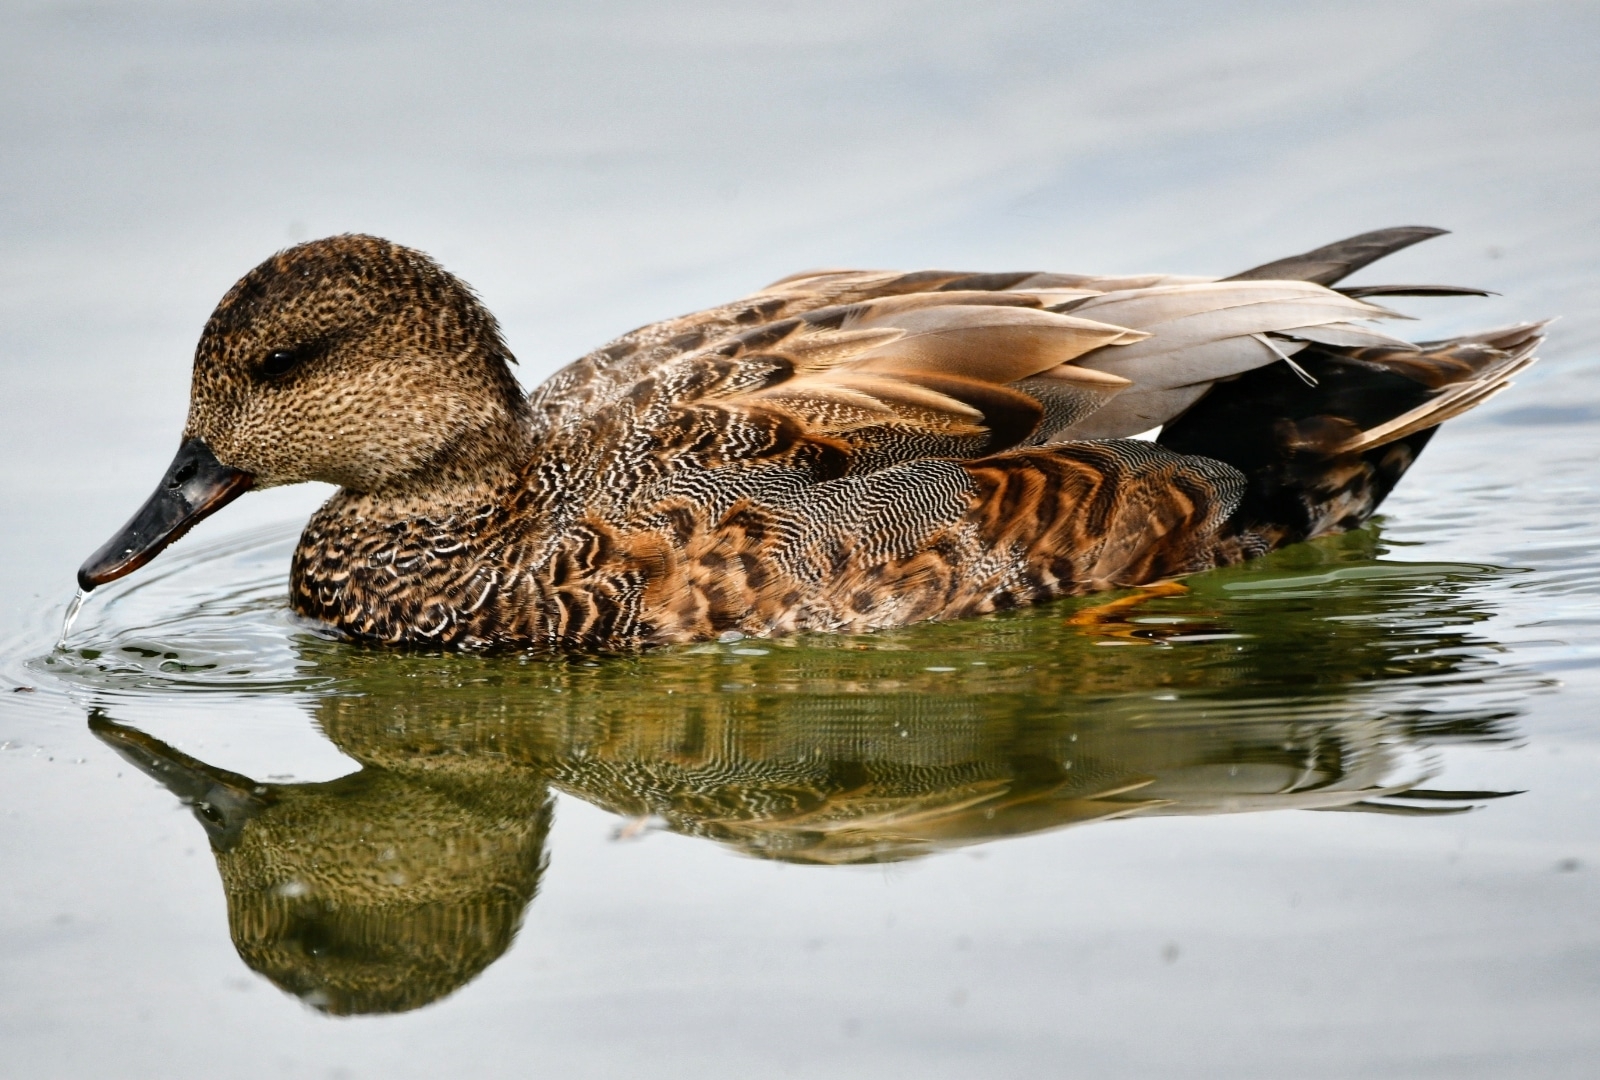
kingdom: Animalia
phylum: Chordata
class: Aves
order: Anseriformes
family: Anatidae
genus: Mareca
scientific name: Mareca strepera
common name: Gadwall
